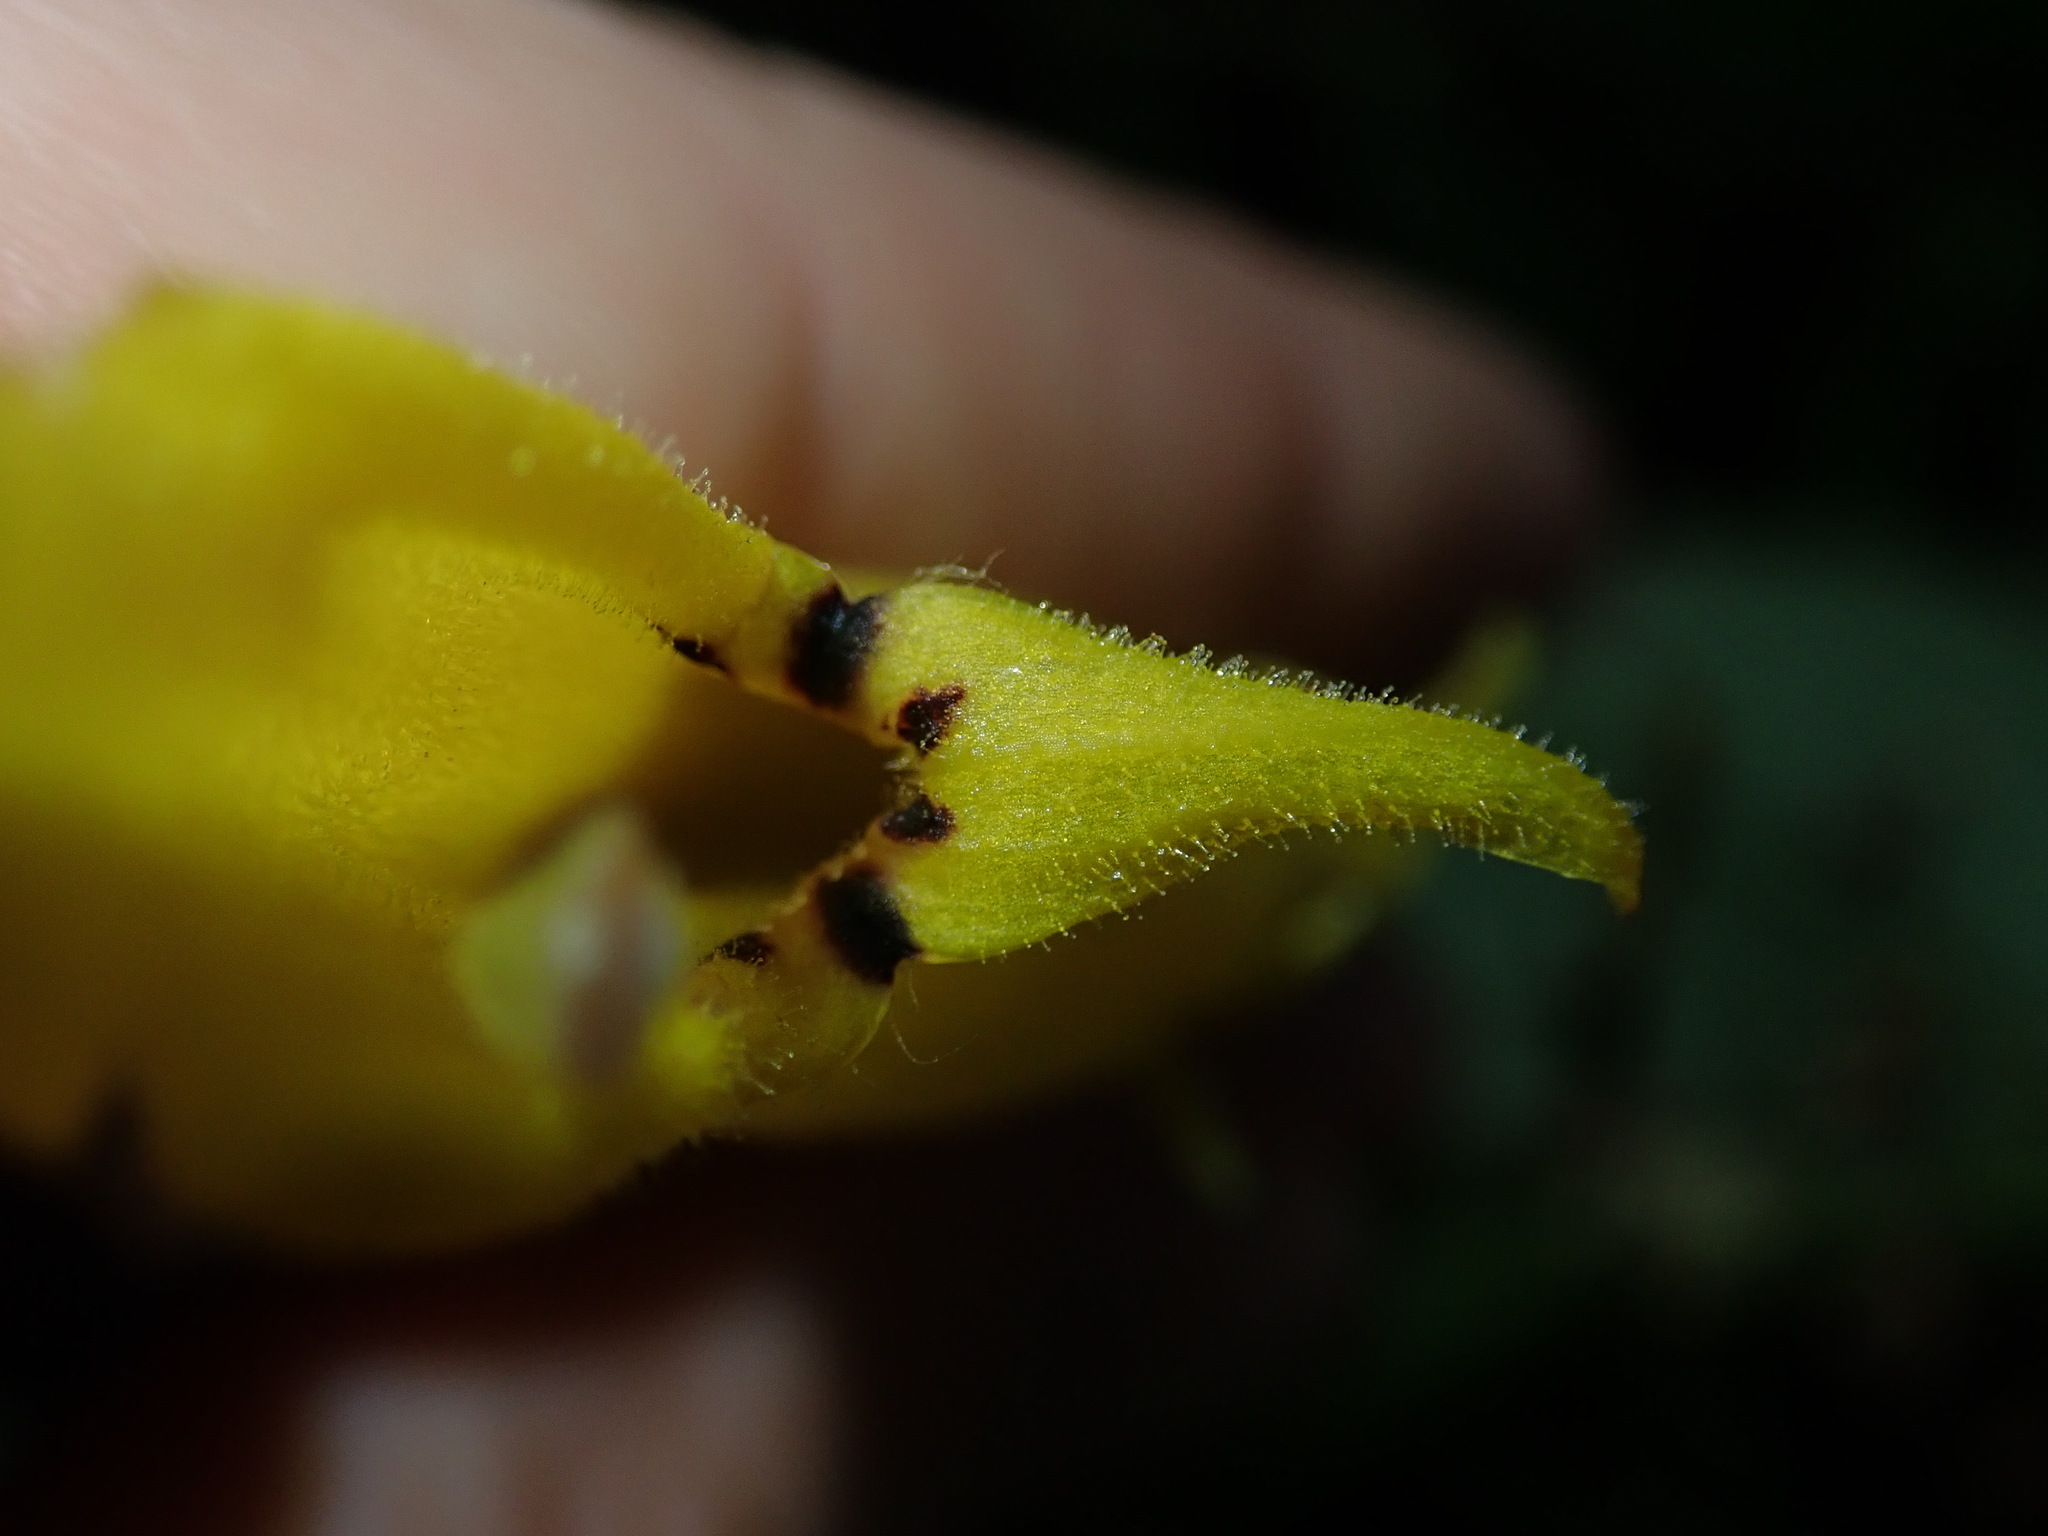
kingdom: Plantae
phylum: Tracheophyta
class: Magnoliopsida
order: Lamiales
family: Gesneriaceae
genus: Columnea
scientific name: Columnea ericae
